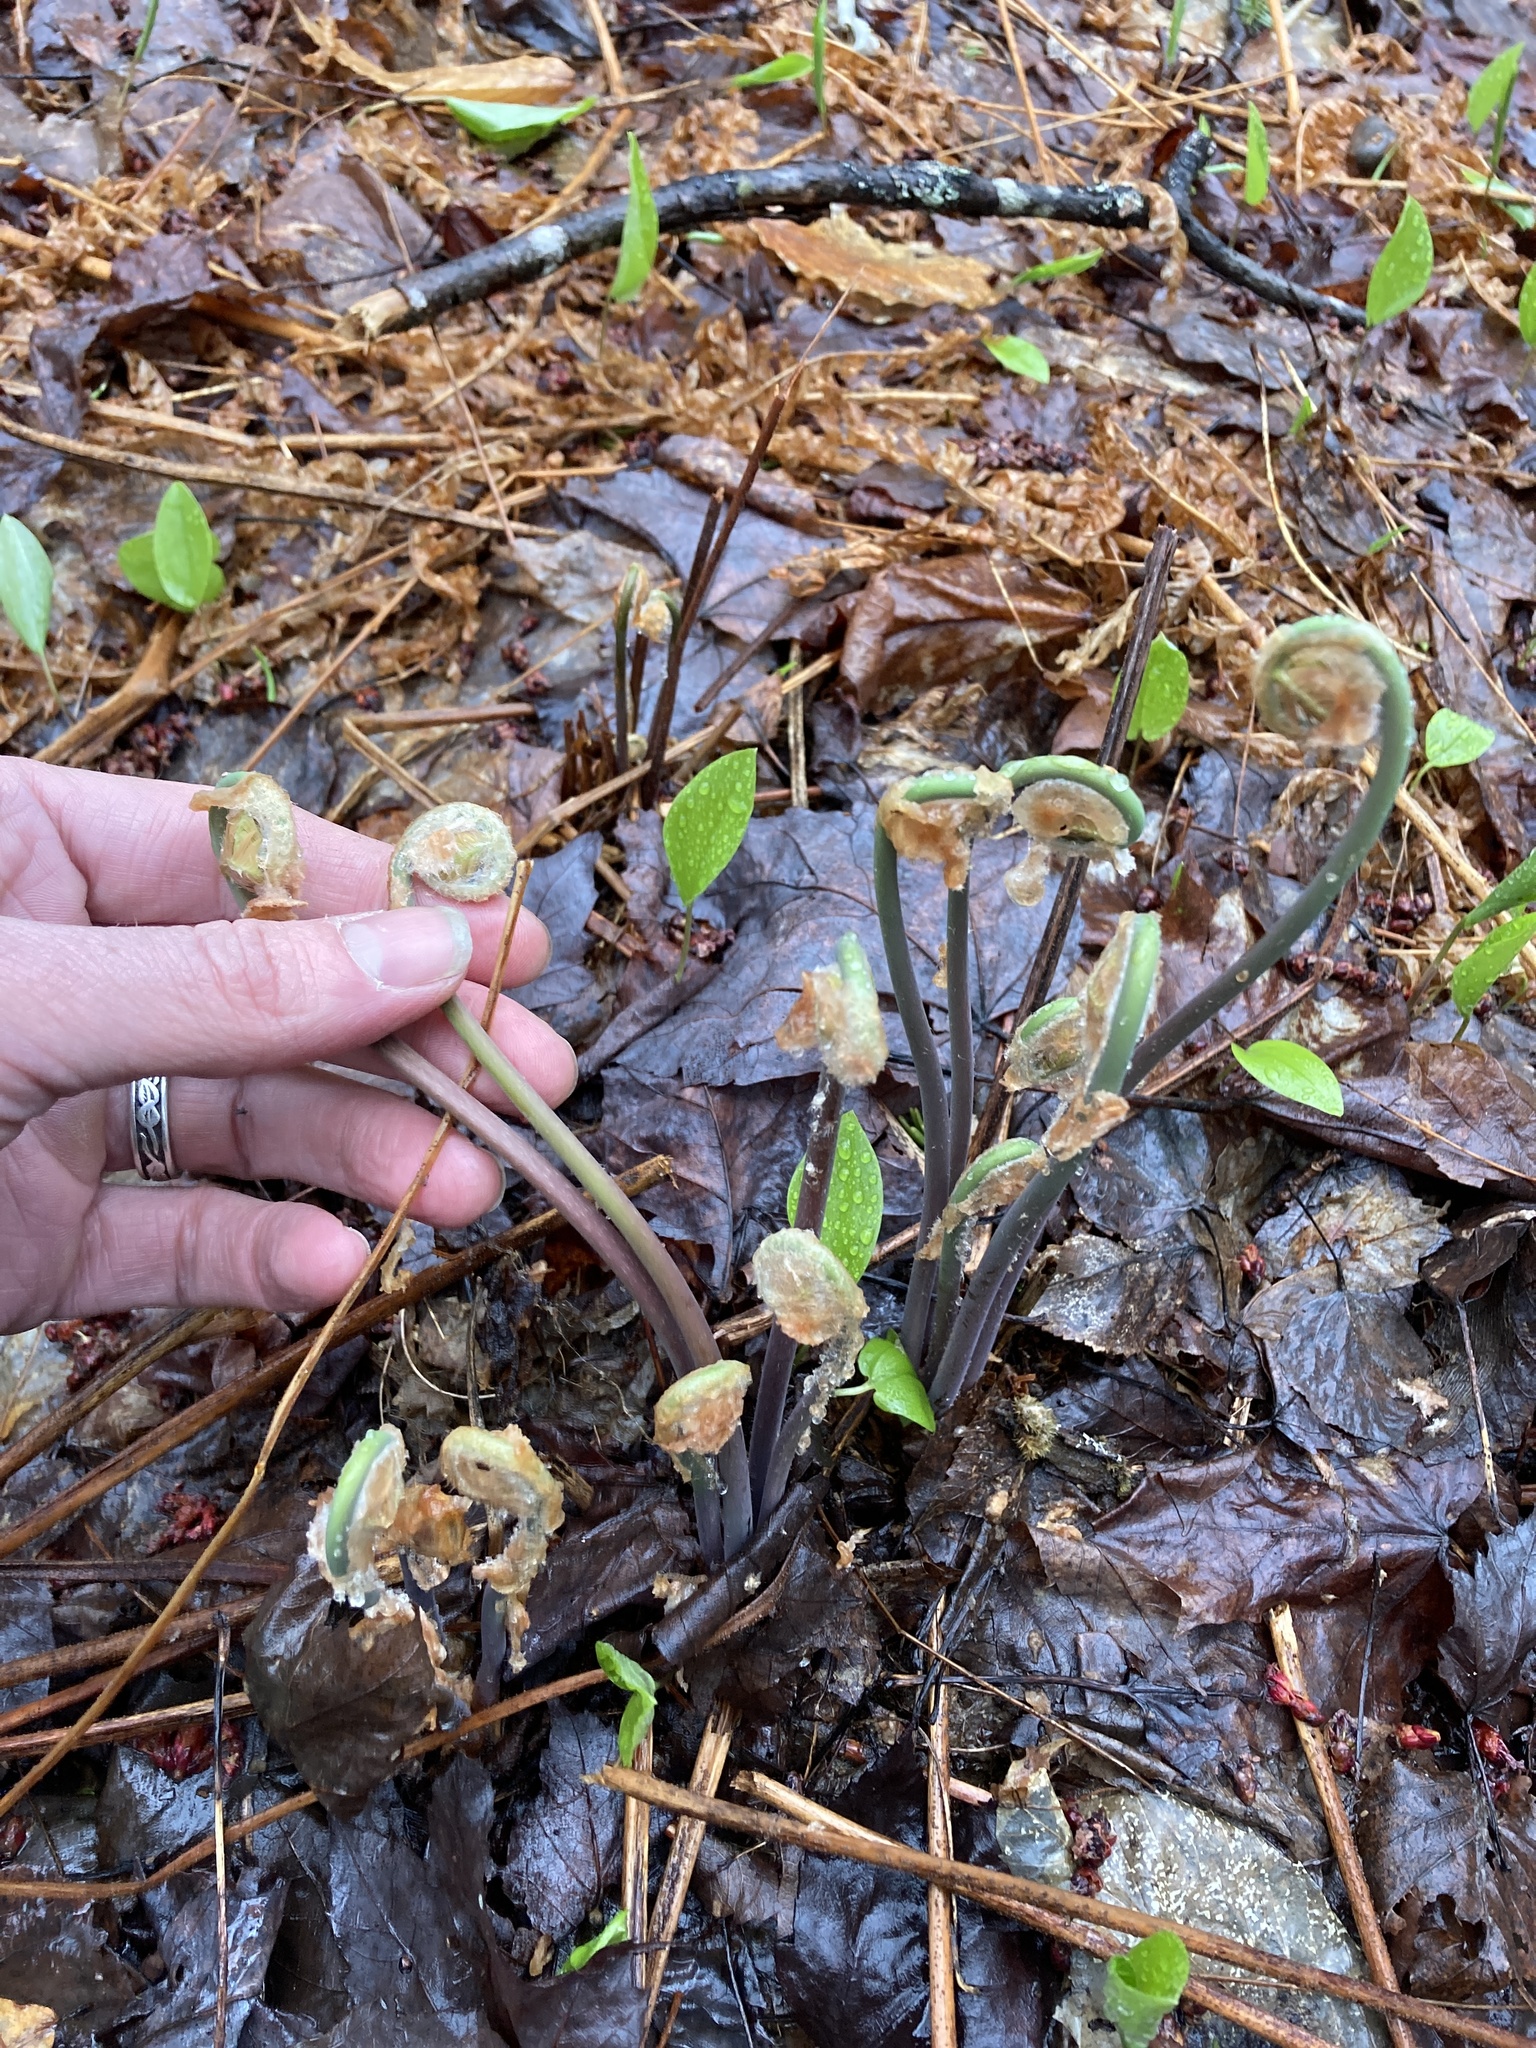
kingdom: Plantae
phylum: Tracheophyta
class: Polypodiopsida
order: Osmundales
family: Osmundaceae
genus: Osmunda
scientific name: Osmunda spectabilis
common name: American royal fern
